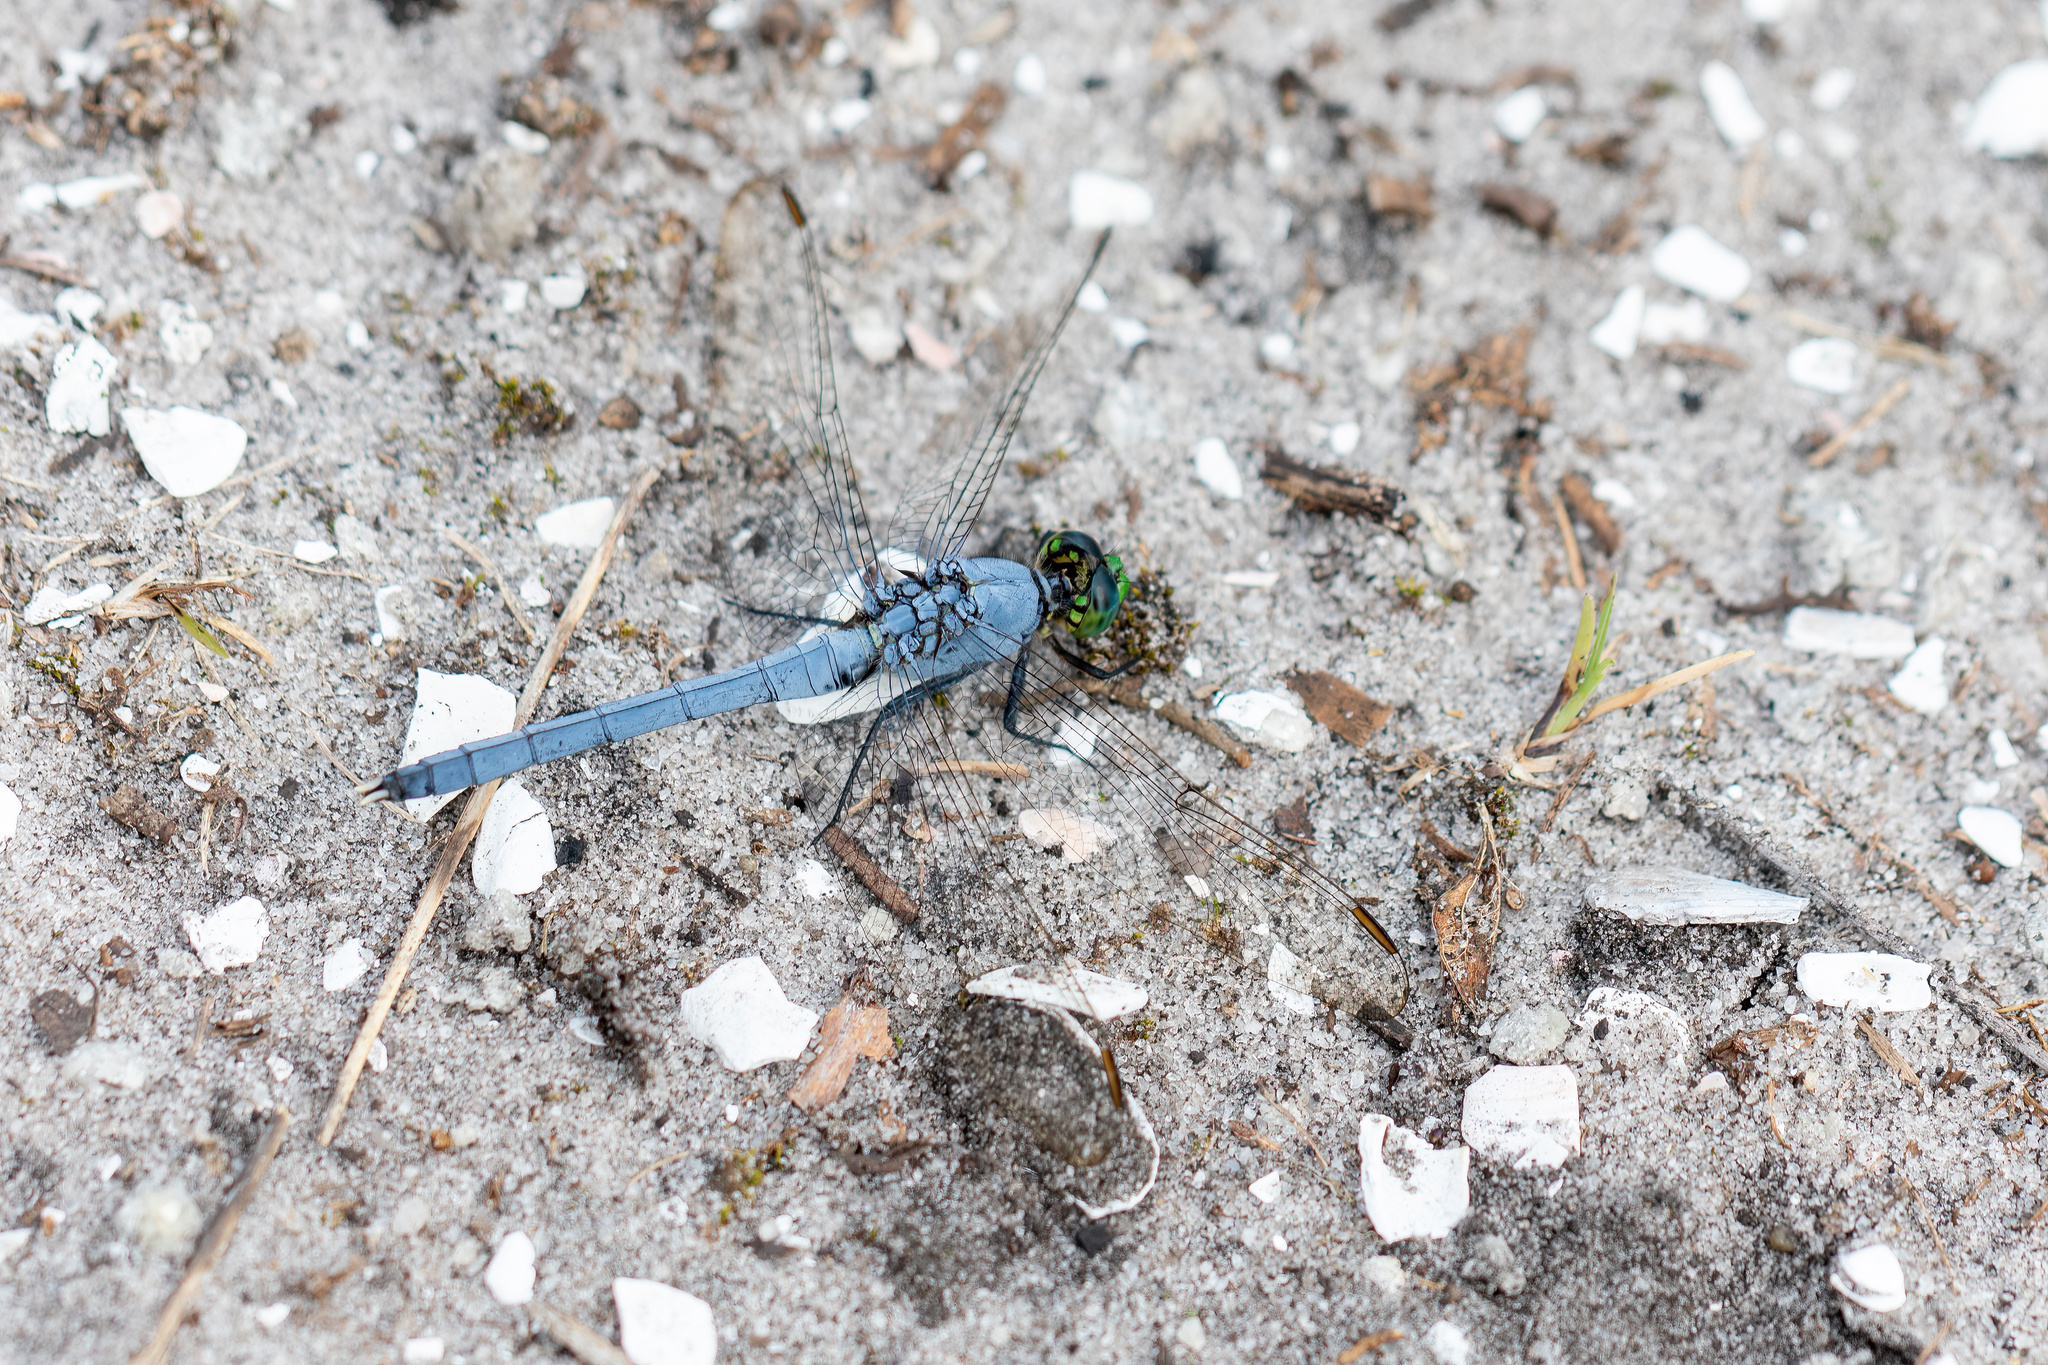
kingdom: Animalia
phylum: Arthropoda
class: Insecta
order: Odonata
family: Libellulidae
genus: Erythemis
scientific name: Erythemis simplicicollis
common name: Eastern pondhawk
